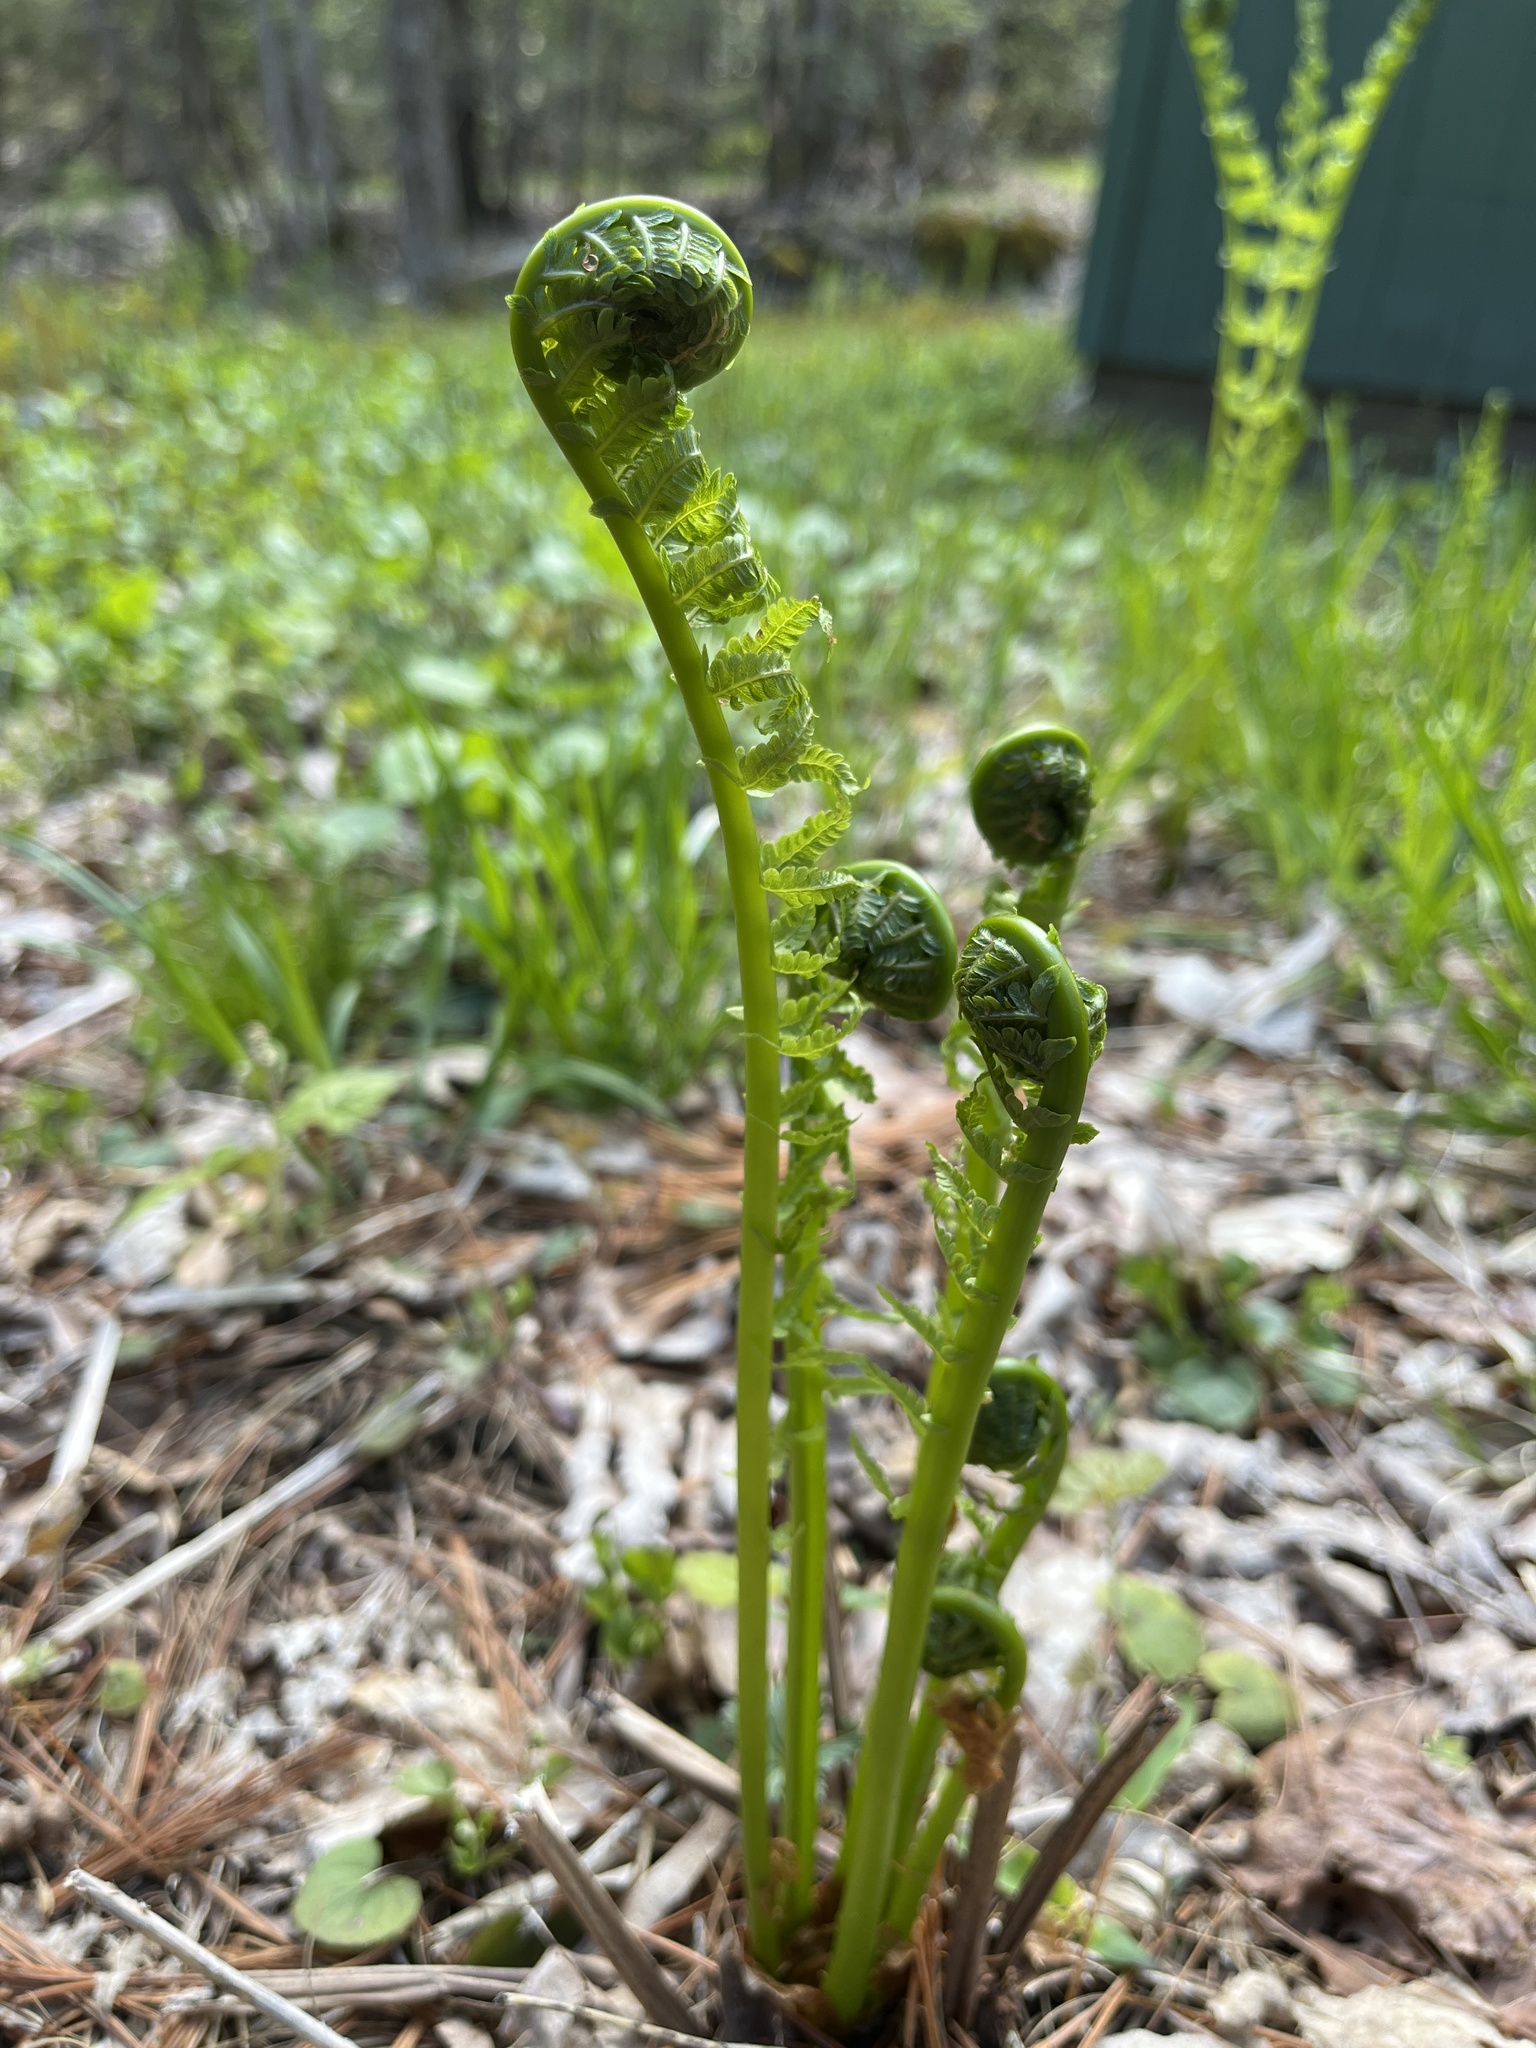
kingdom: Plantae
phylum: Tracheophyta
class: Polypodiopsida
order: Polypodiales
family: Onocleaceae
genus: Matteuccia
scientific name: Matteuccia struthiopteris
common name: Ostrich fern
